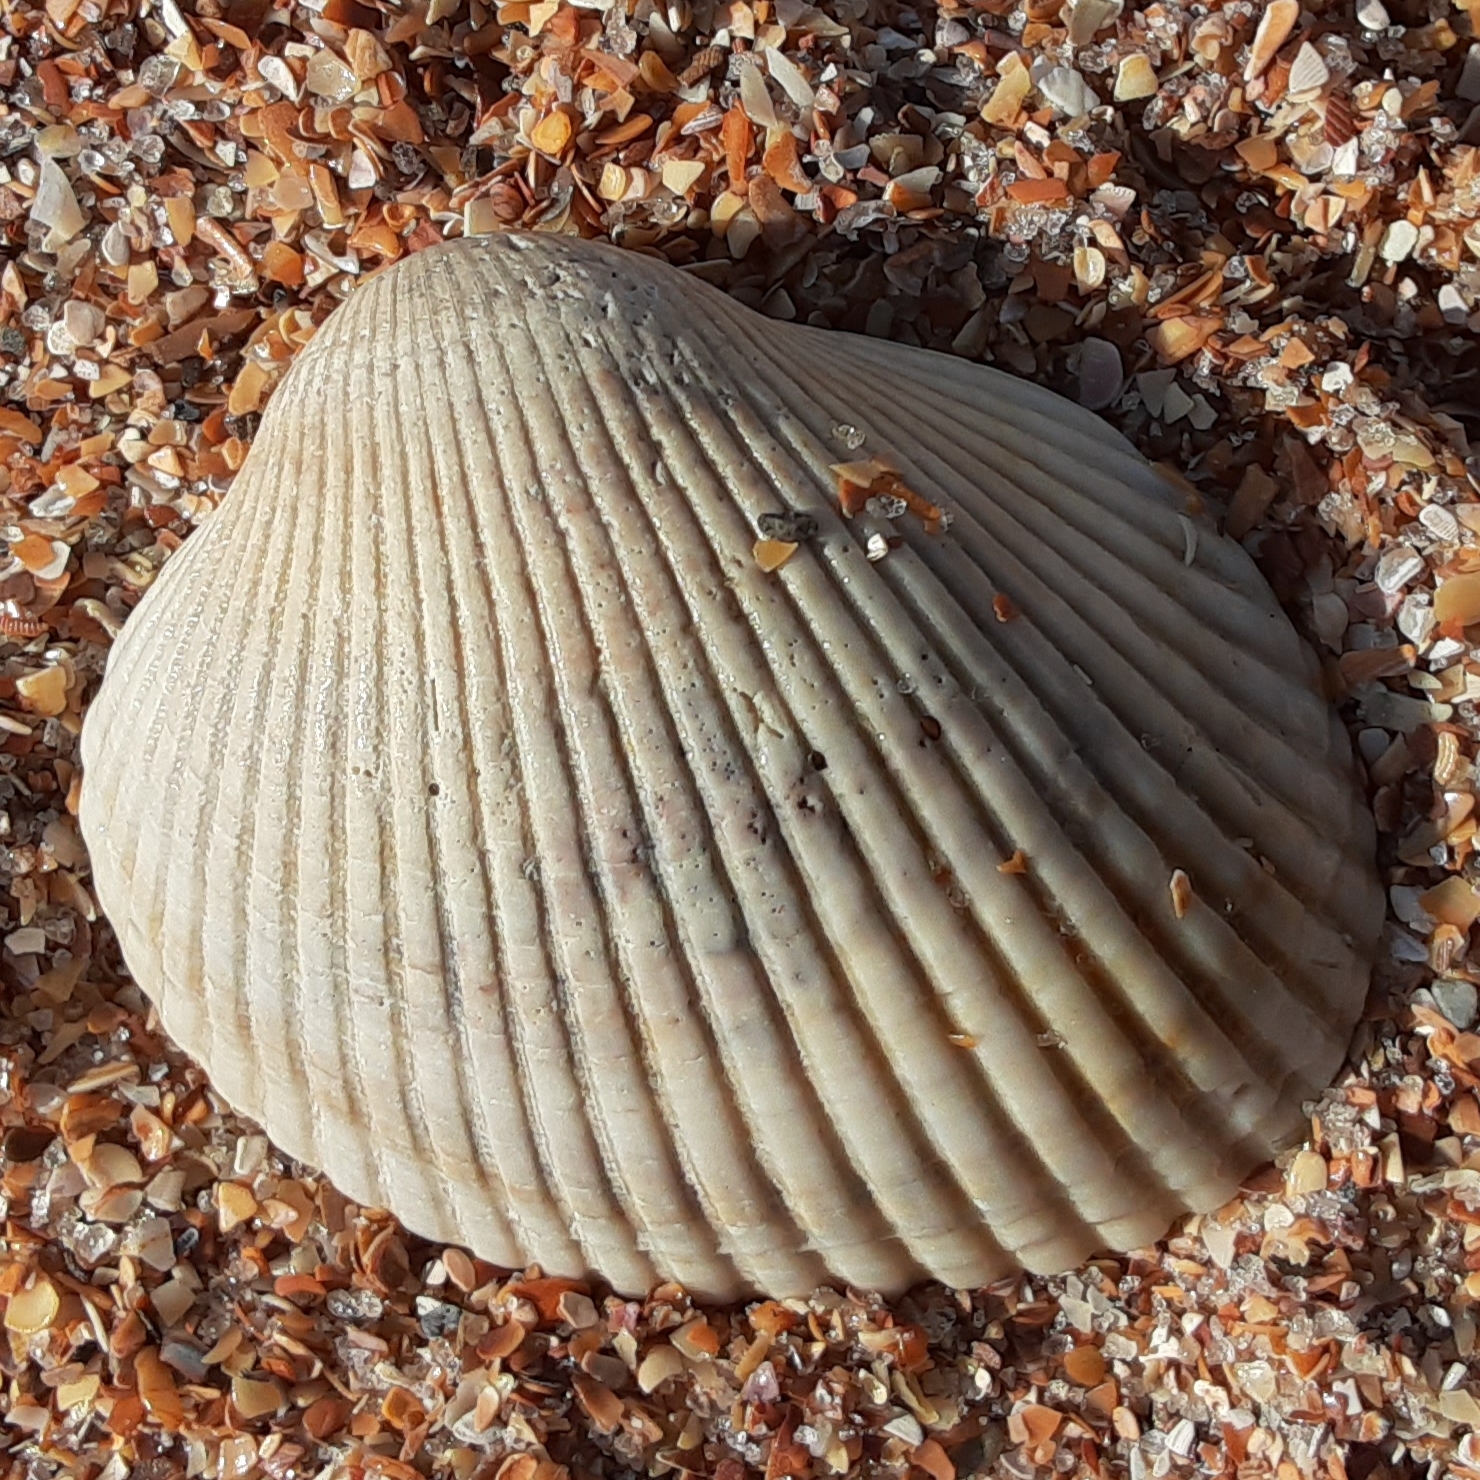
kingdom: Animalia
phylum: Mollusca
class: Bivalvia
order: Arcida
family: Arcidae
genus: Lunarca
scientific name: Lunarca ovalis
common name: Blood ark
